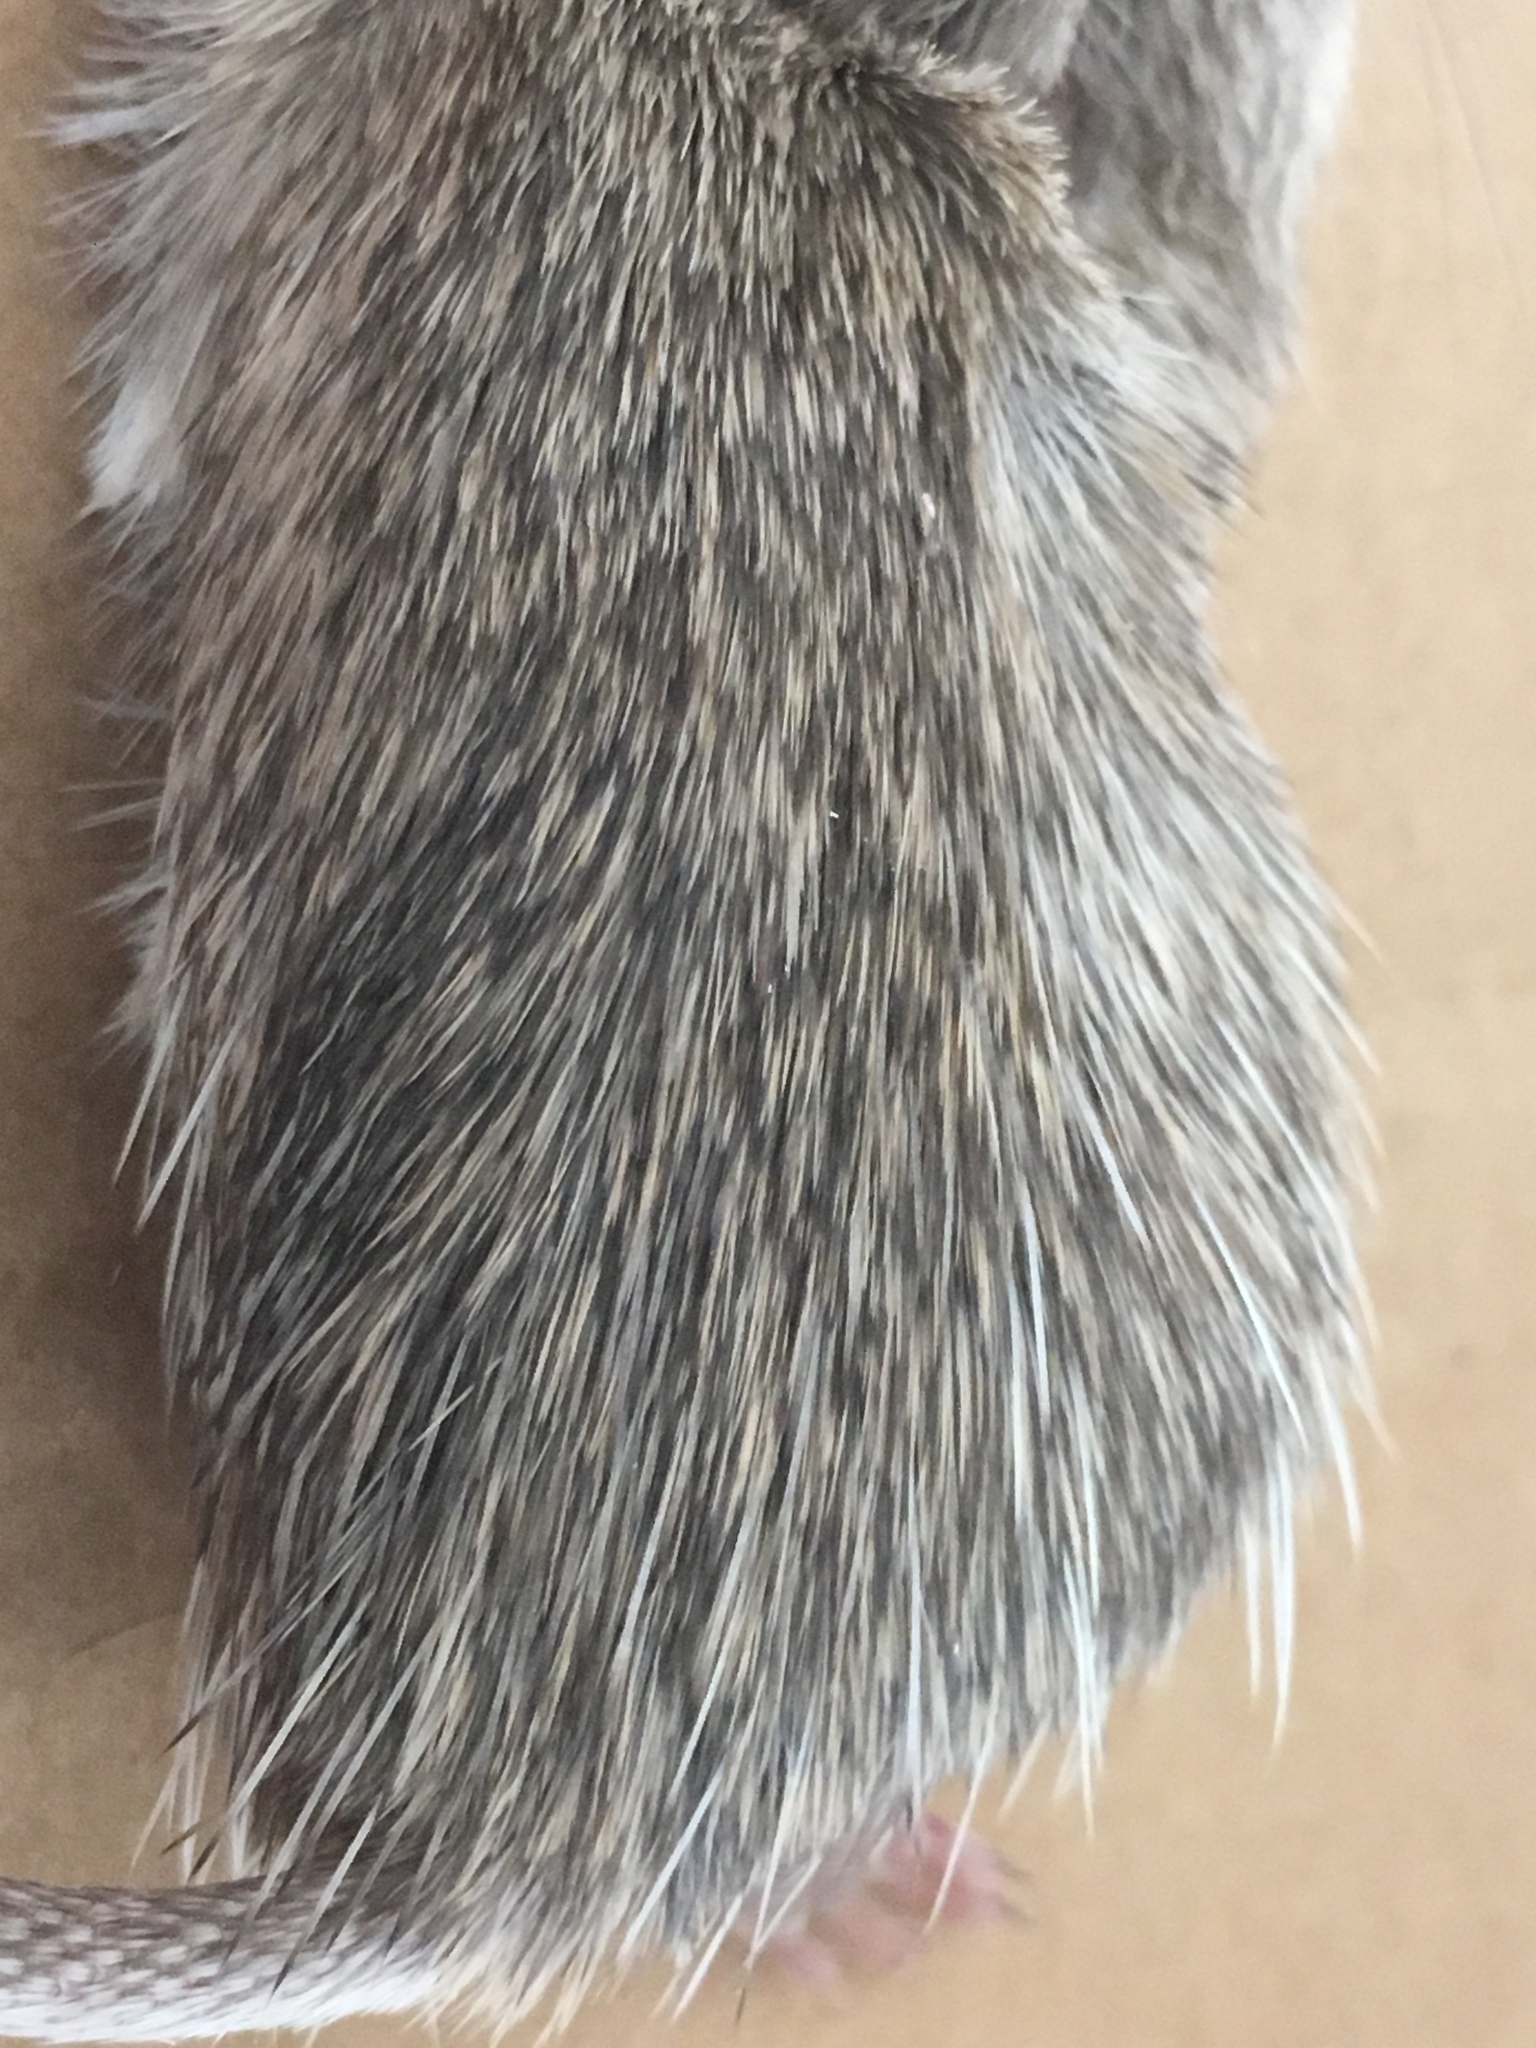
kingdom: Animalia
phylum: Chordata
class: Mammalia
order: Rodentia
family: Heteromyidae
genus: Chaetodipus
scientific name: Chaetodipus fallax
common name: San diego pocket mouse
